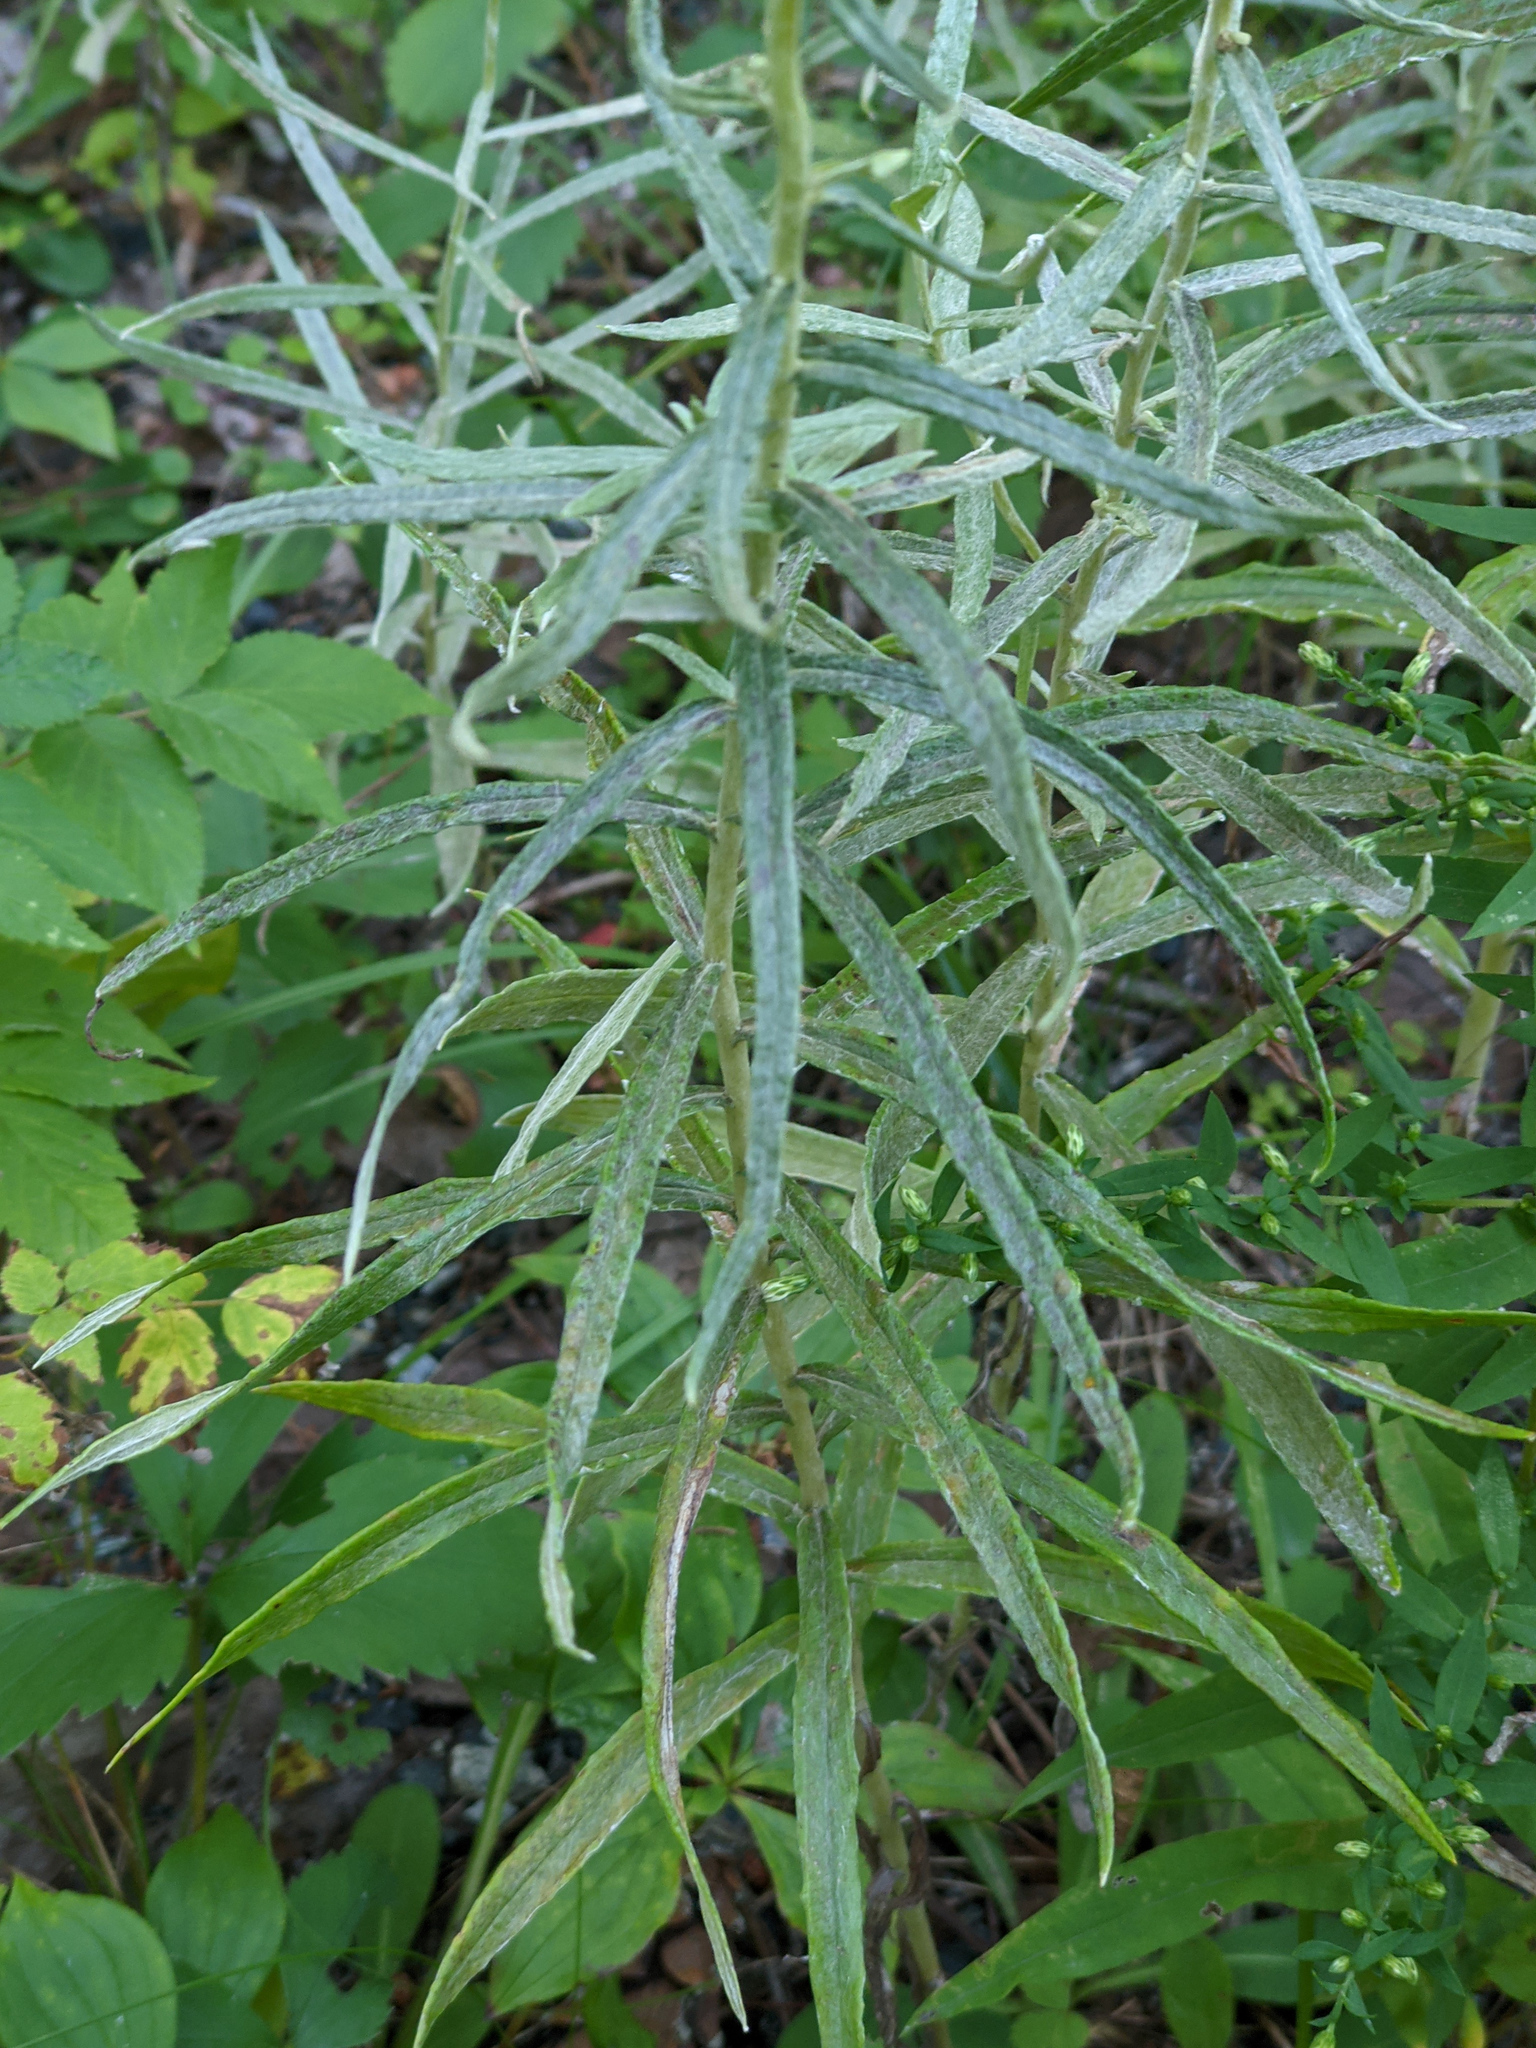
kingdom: Plantae
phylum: Tracheophyta
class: Magnoliopsida
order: Asterales
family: Asteraceae
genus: Anaphalis
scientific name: Anaphalis margaritacea
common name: Pearly everlasting
